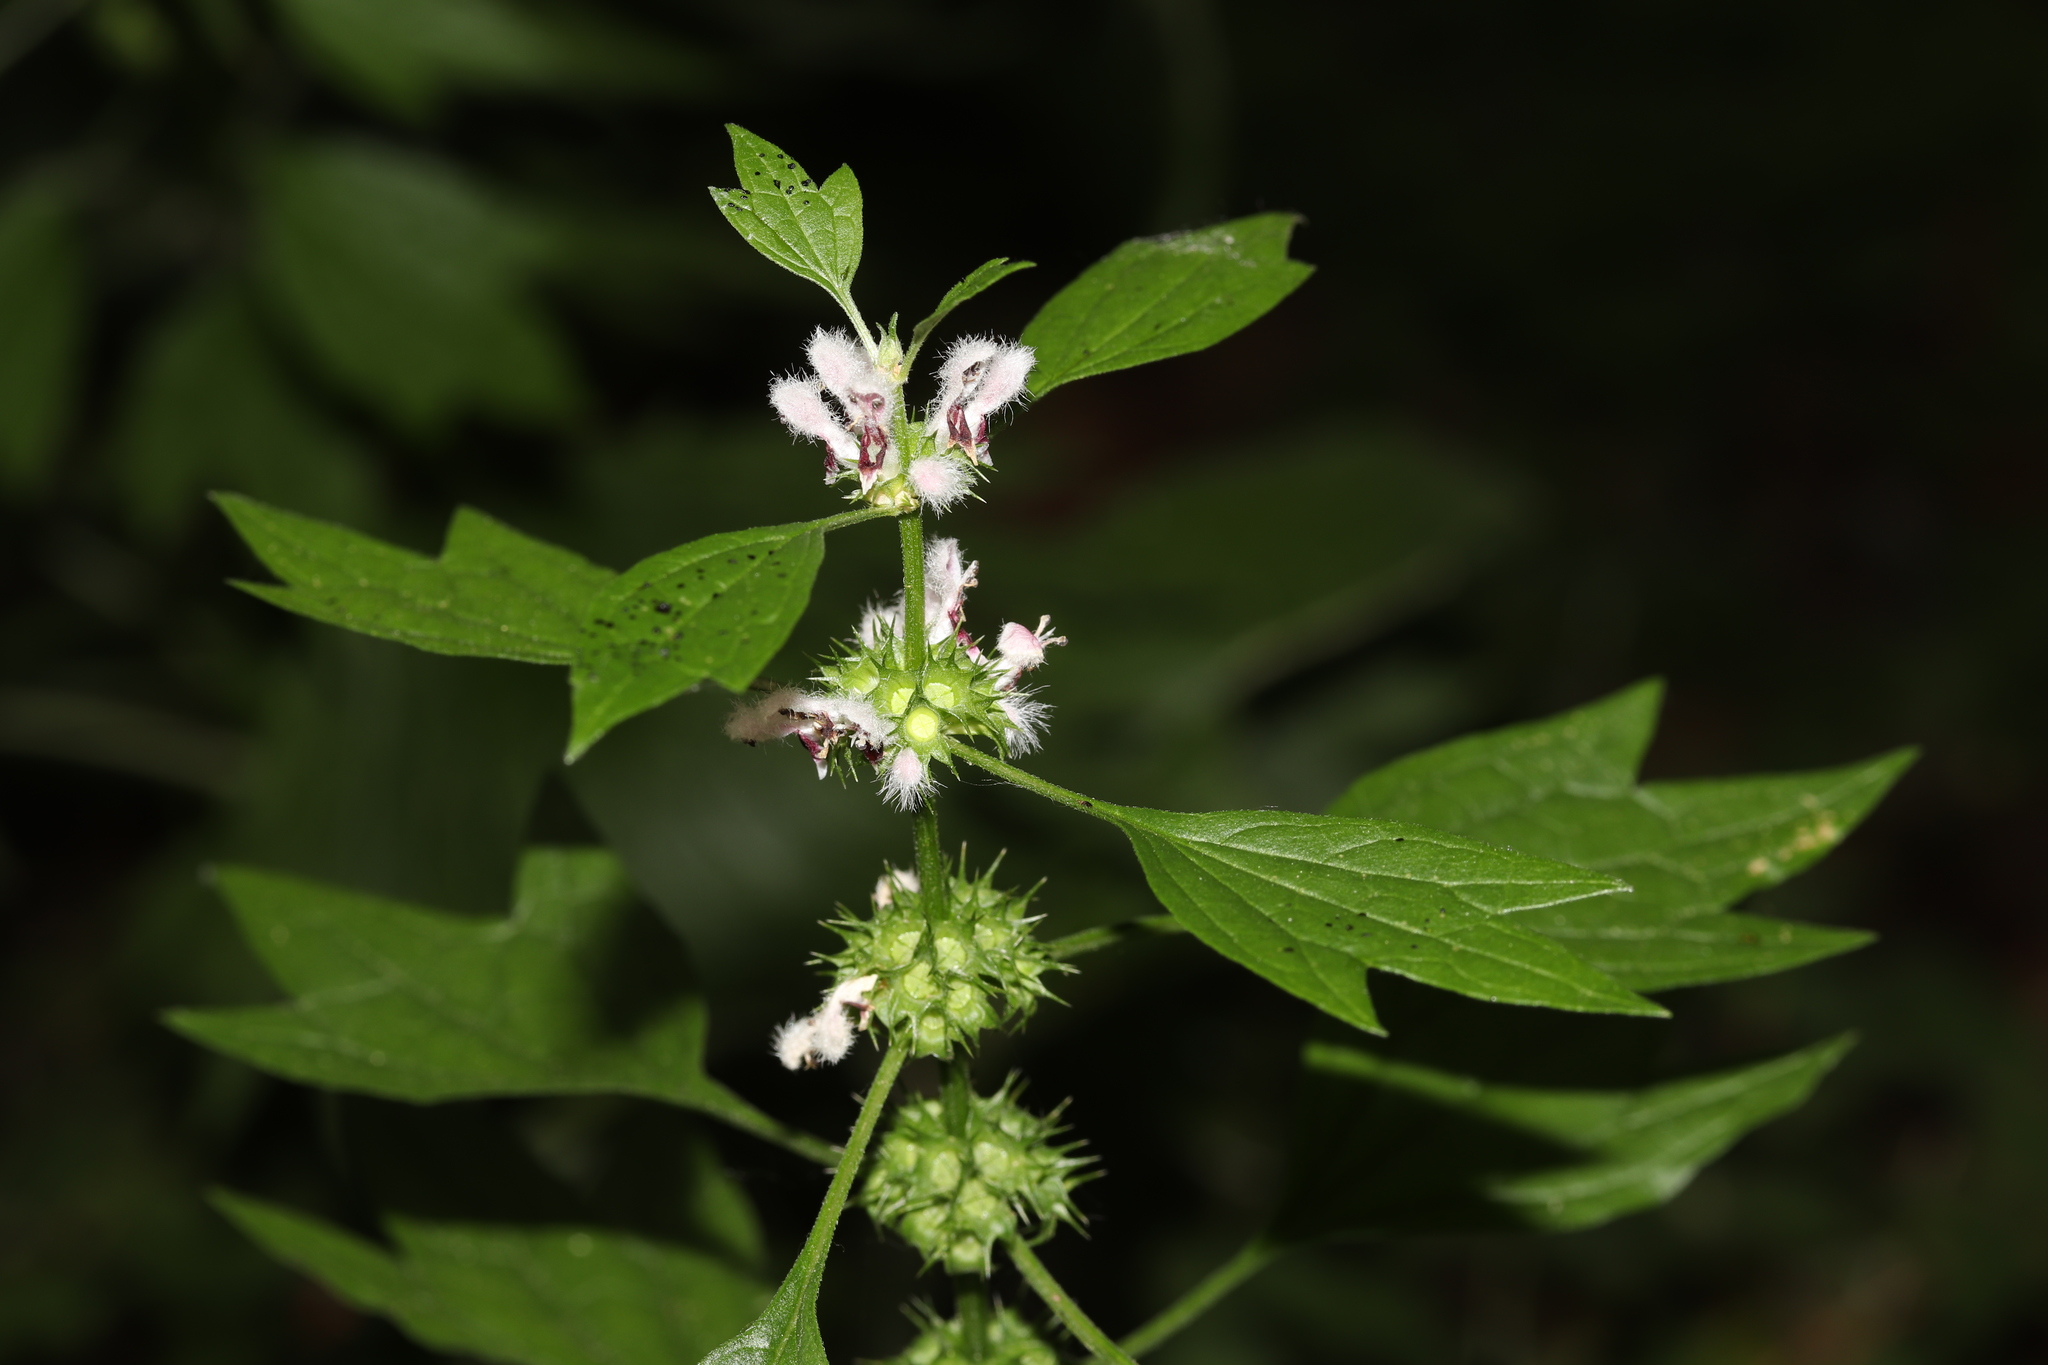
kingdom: Plantae
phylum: Tracheophyta
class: Magnoliopsida
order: Lamiales
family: Lamiaceae
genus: Leonurus
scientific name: Leonurus cardiaca
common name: Motherwort
